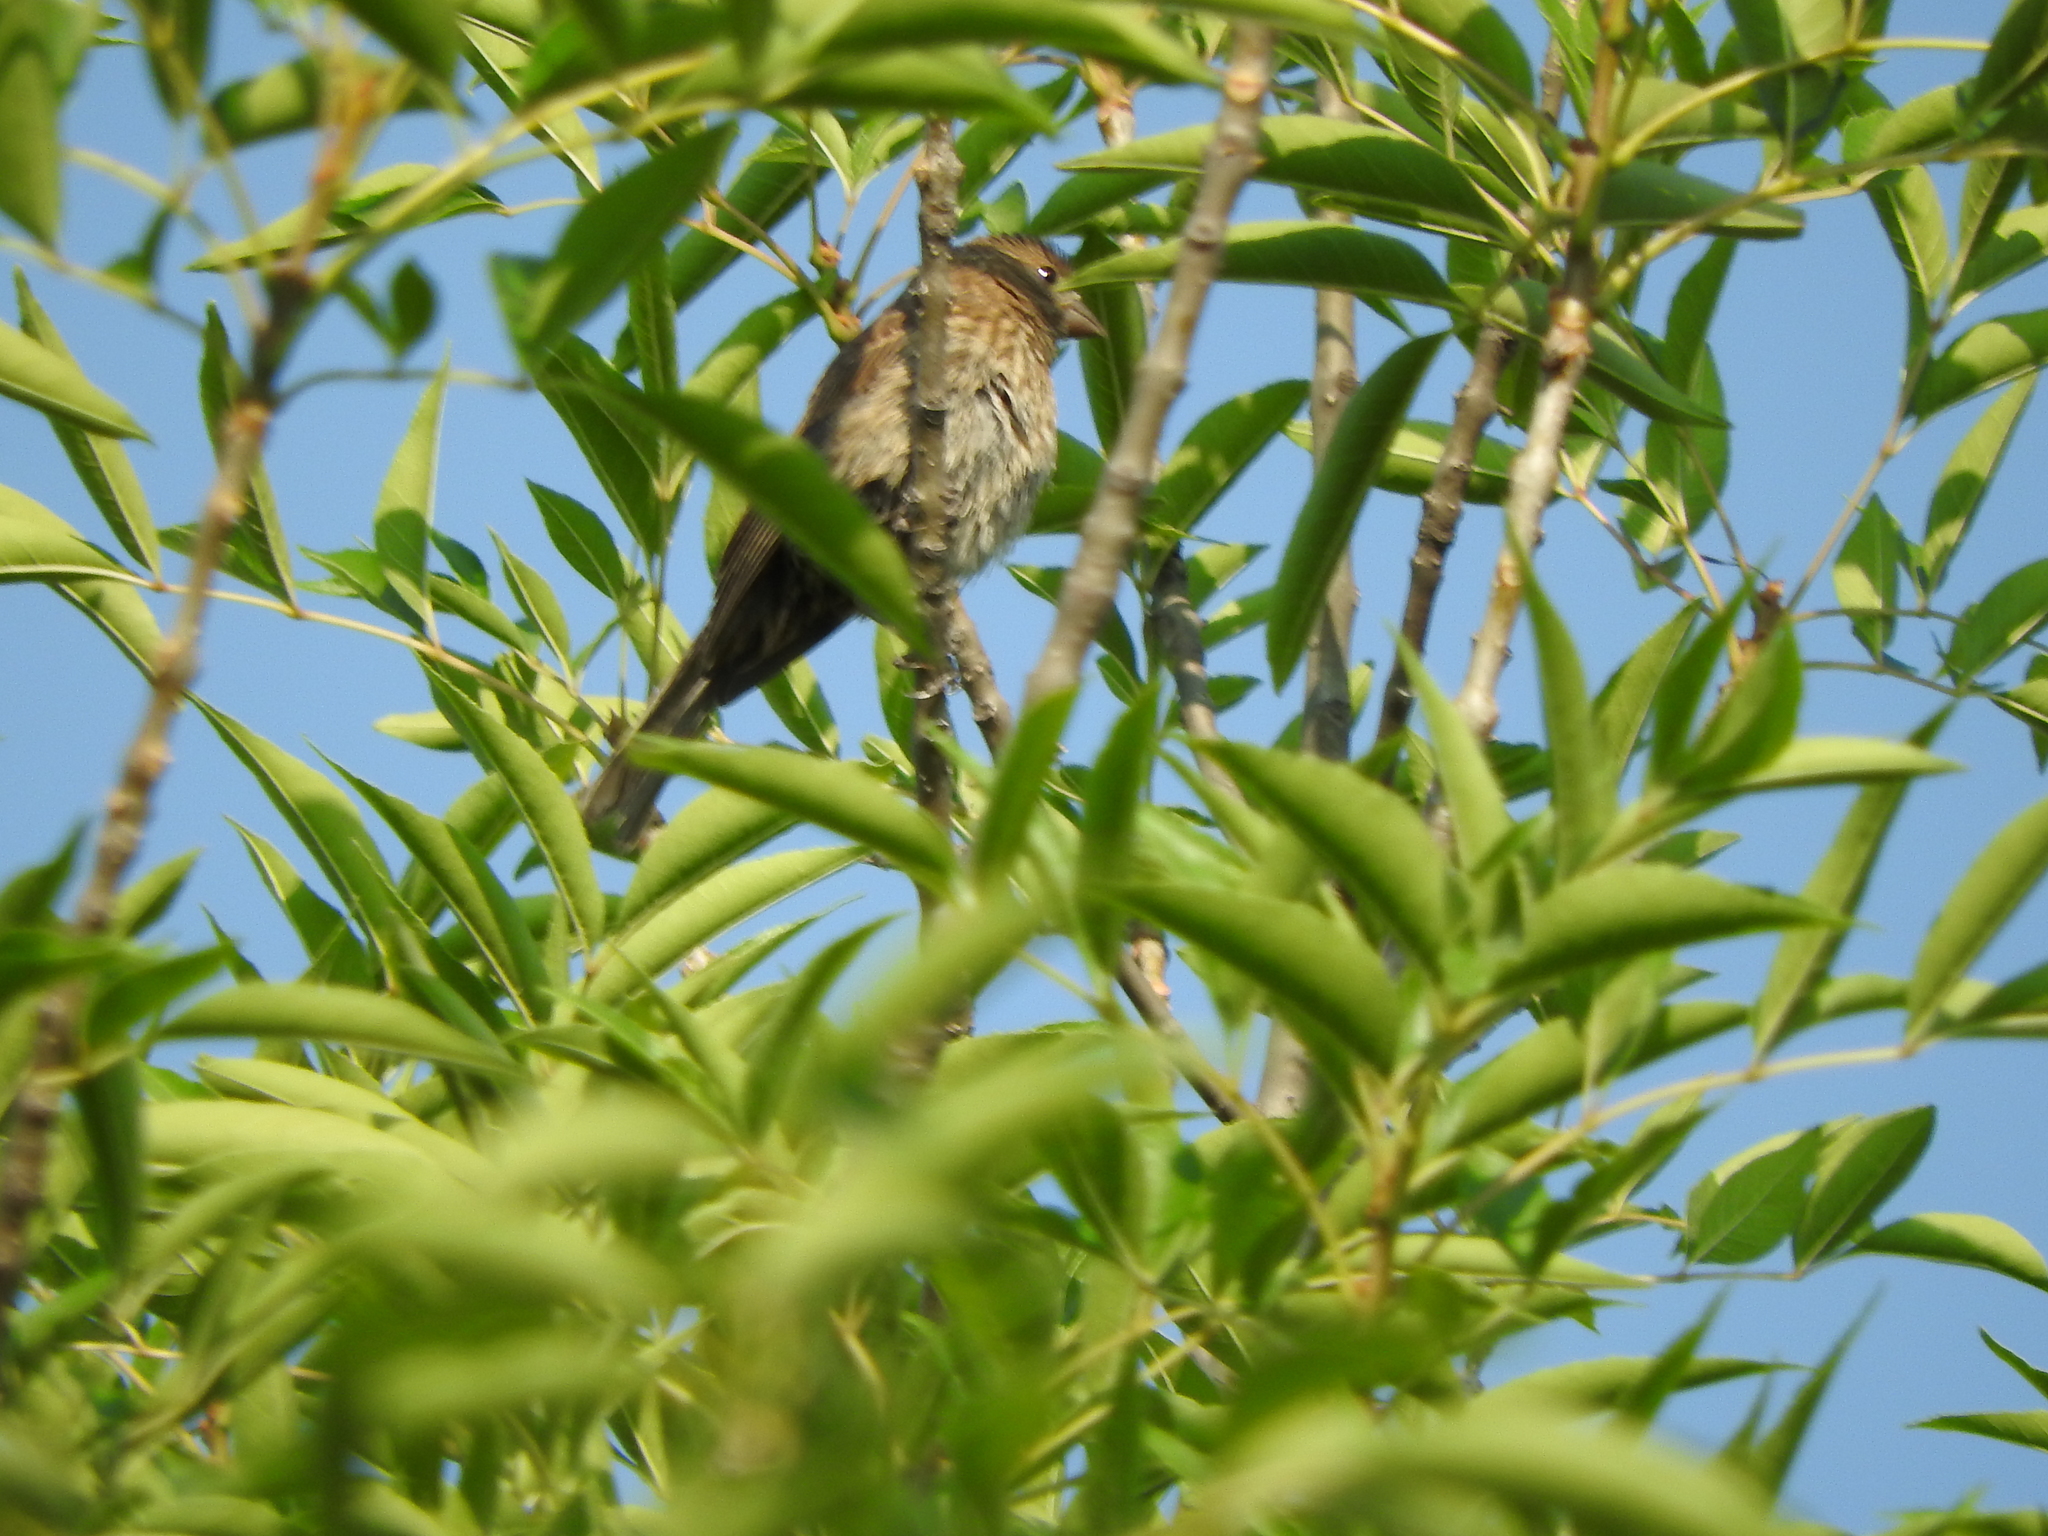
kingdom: Animalia
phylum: Chordata
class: Aves
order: Passeriformes
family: Fringillidae
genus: Haemorhous
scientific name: Haemorhous mexicanus
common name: House finch
